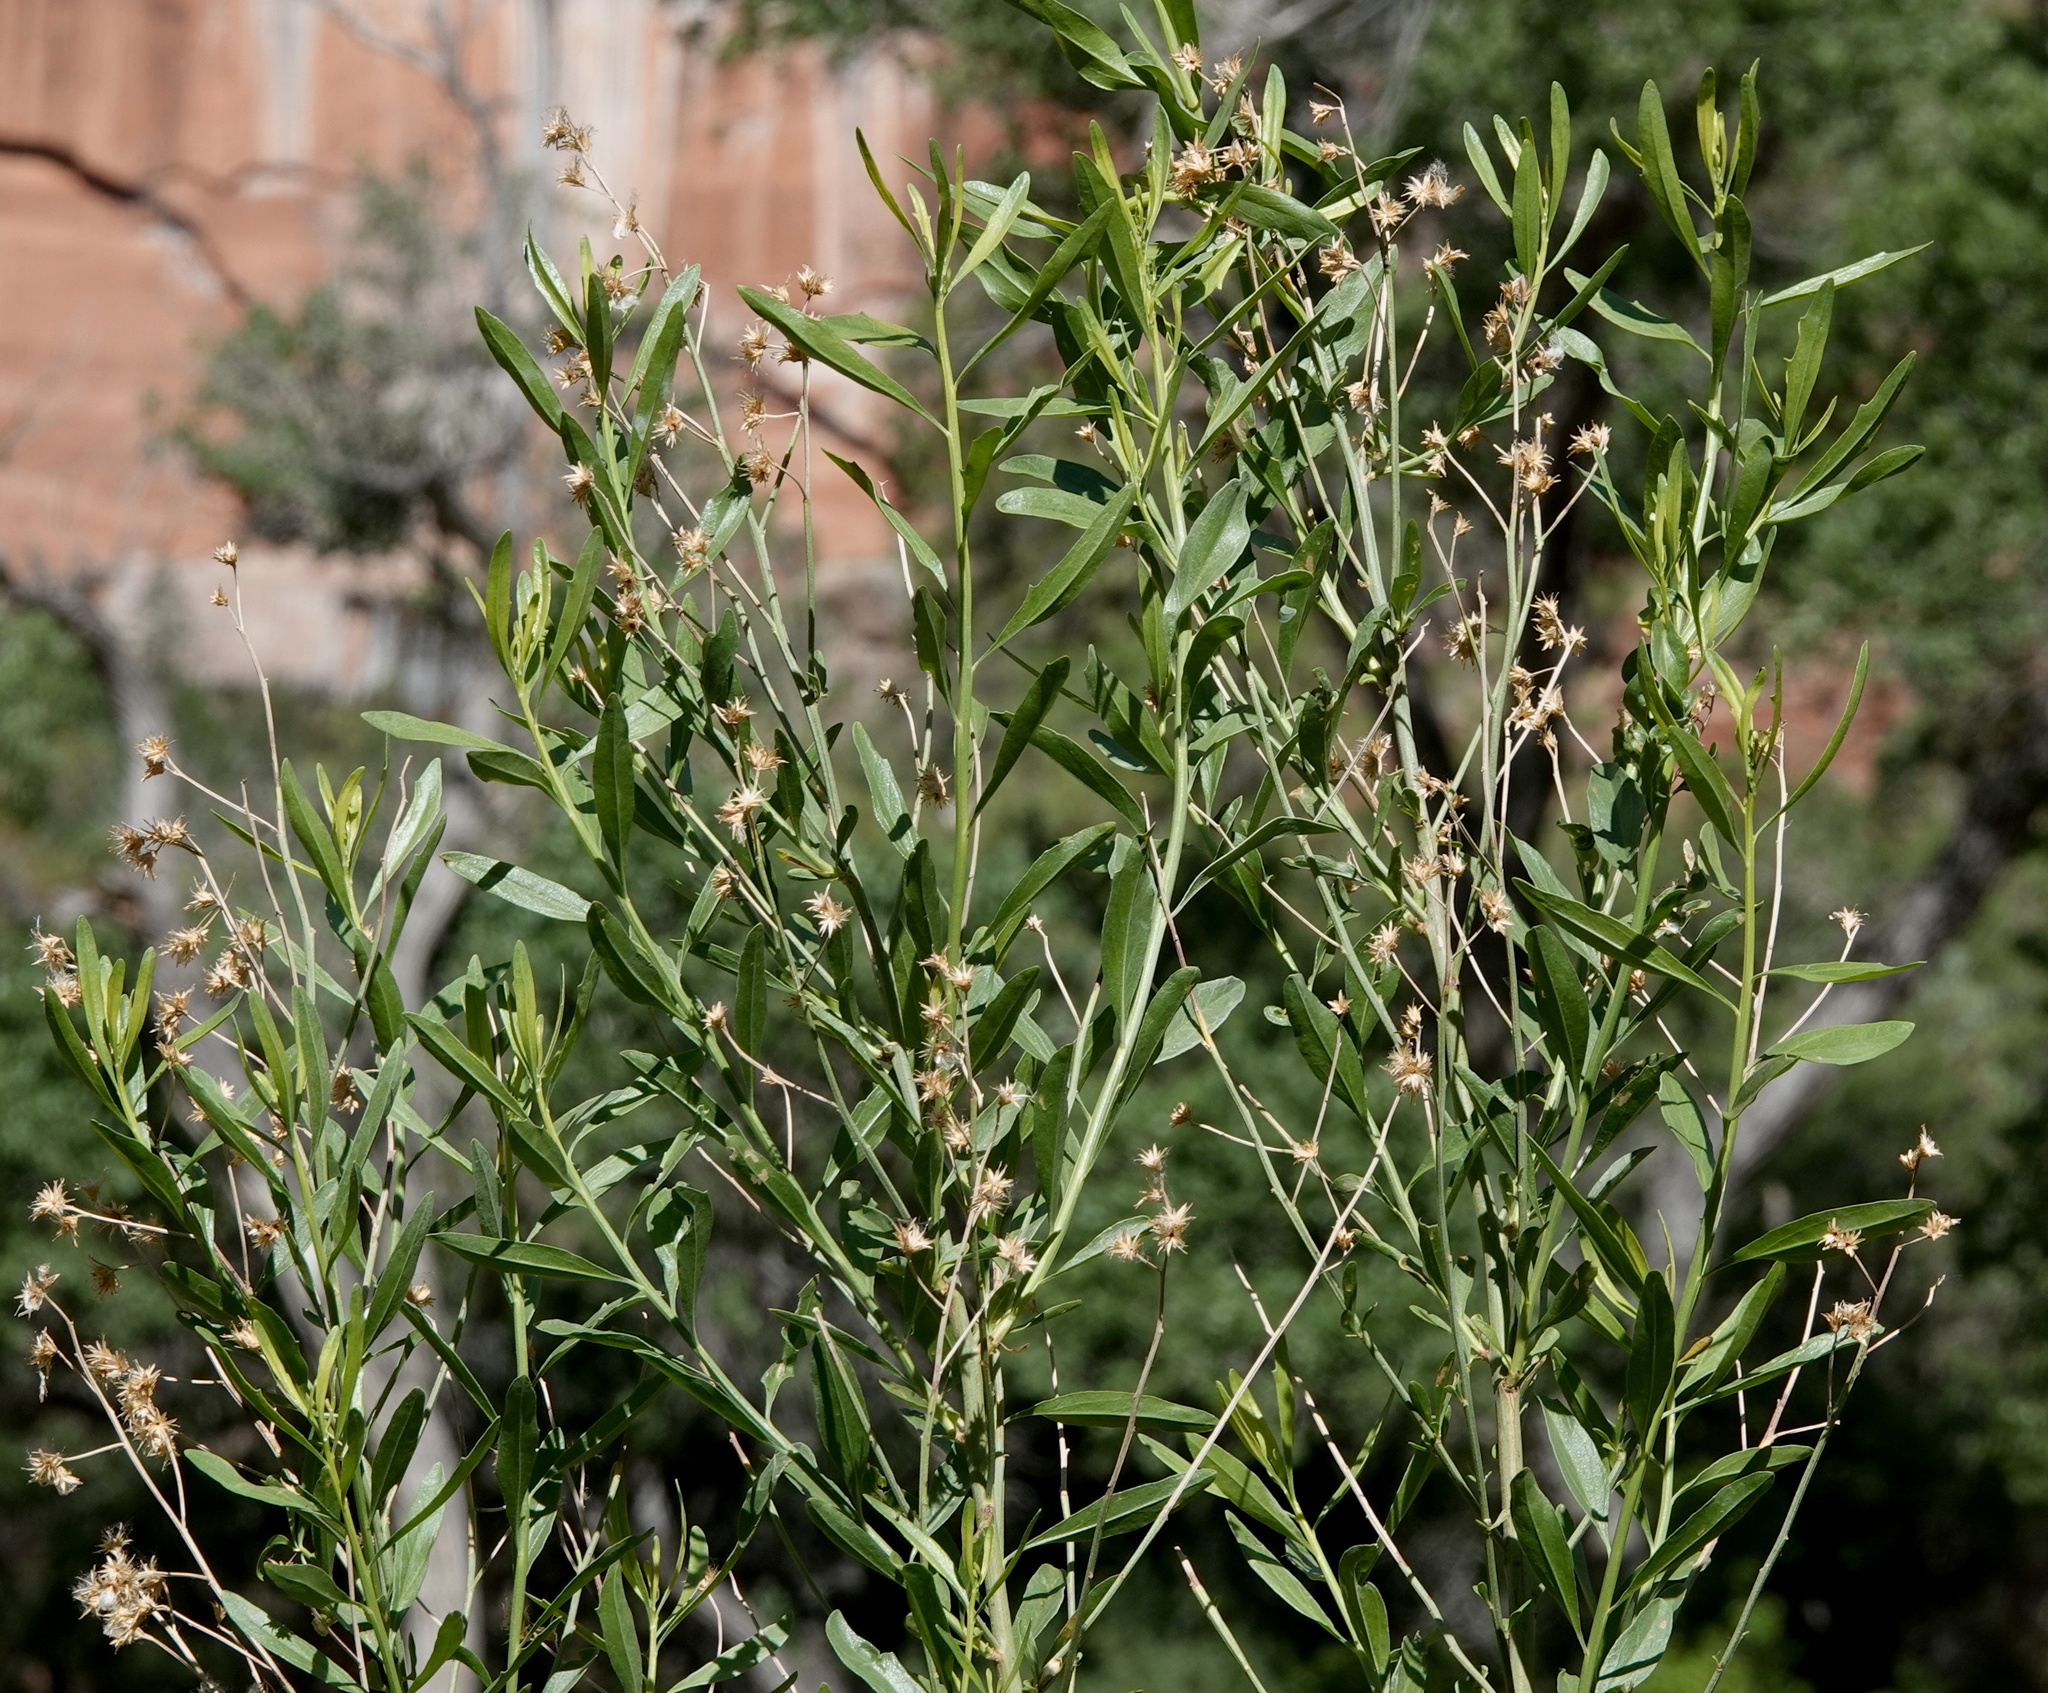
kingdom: Plantae
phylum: Tracheophyta
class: Magnoliopsida
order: Asterales
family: Asteraceae
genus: Baccharis
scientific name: Baccharis salicina
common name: Willow baccharis
